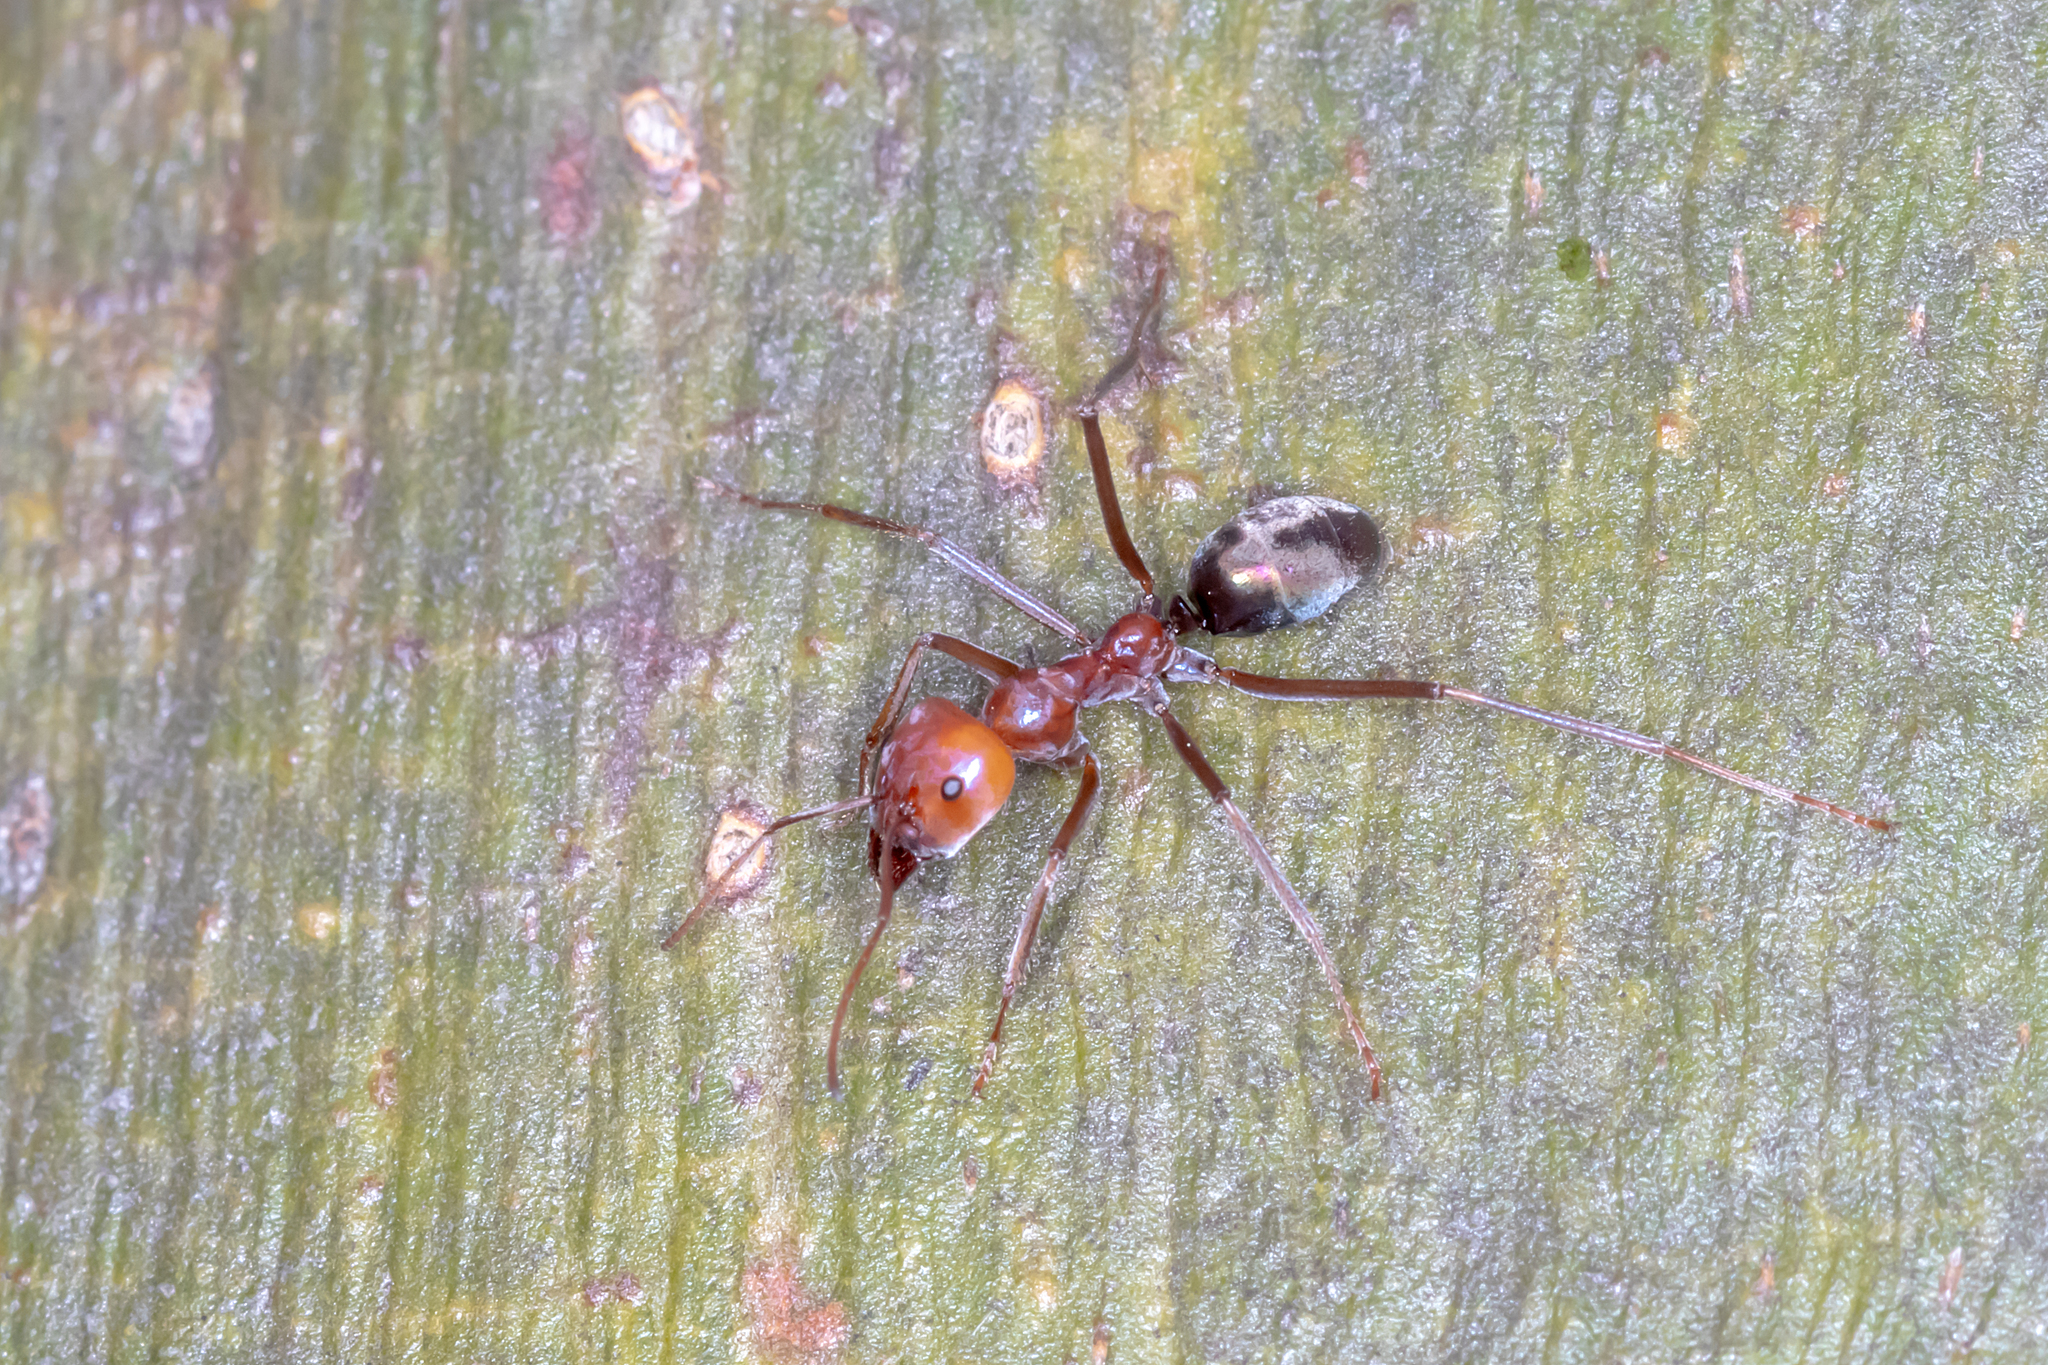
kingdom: Animalia
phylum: Arthropoda
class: Insecta
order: Hymenoptera
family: Formicidae
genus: Iridomyrmex
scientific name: Iridomyrmex purpureus
